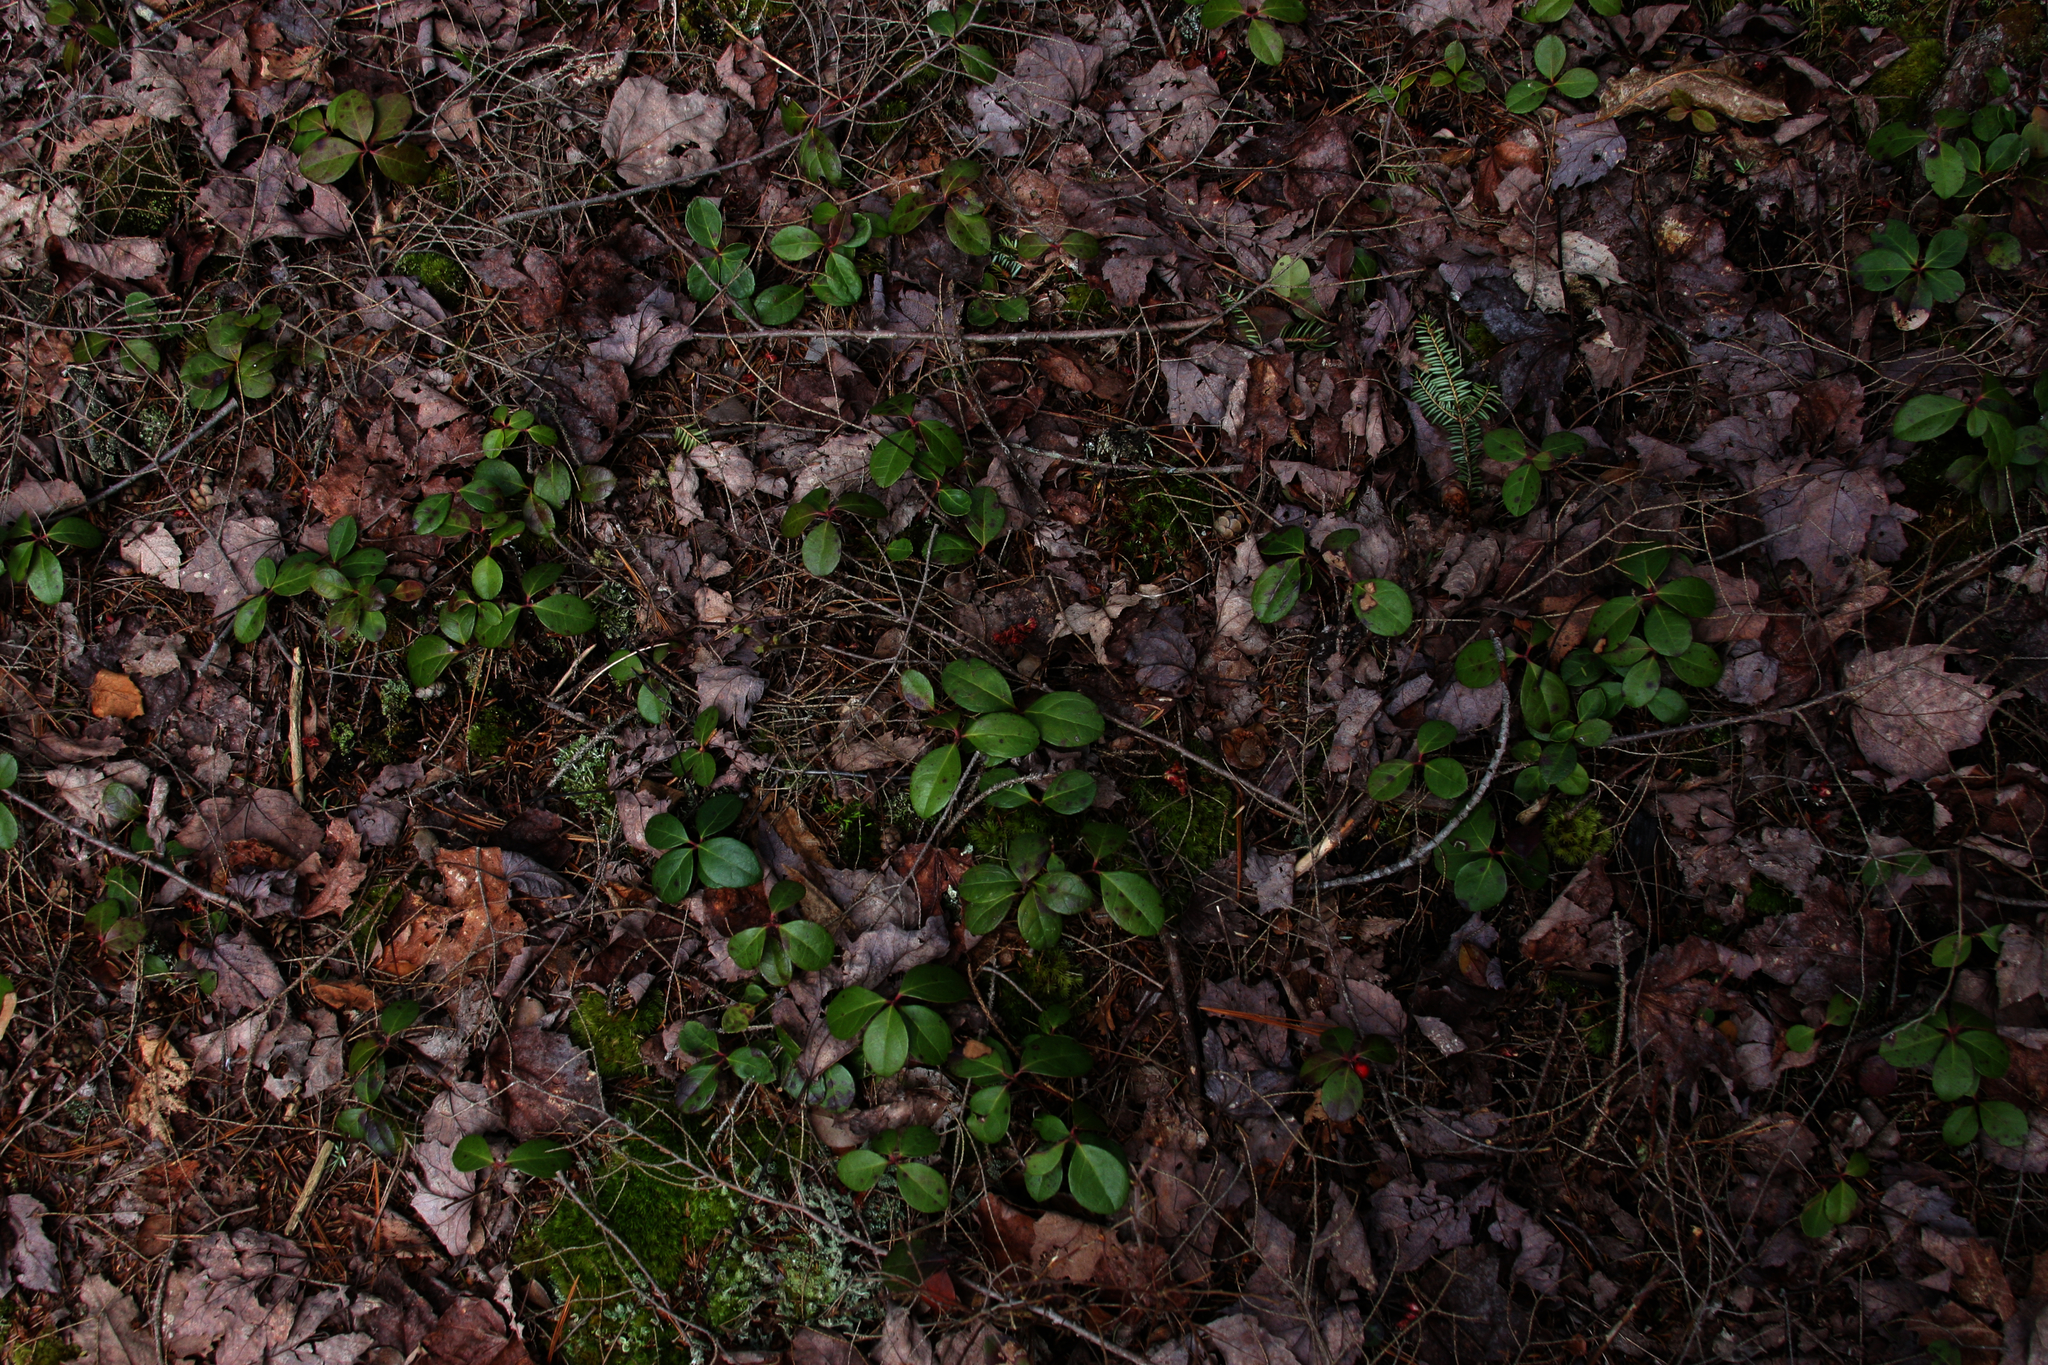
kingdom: Plantae
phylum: Tracheophyta
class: Magnoliopsida
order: Ericales
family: Ericaceae
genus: Gaultheria
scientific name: Gaultheria procumbens
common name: Checkerberry
